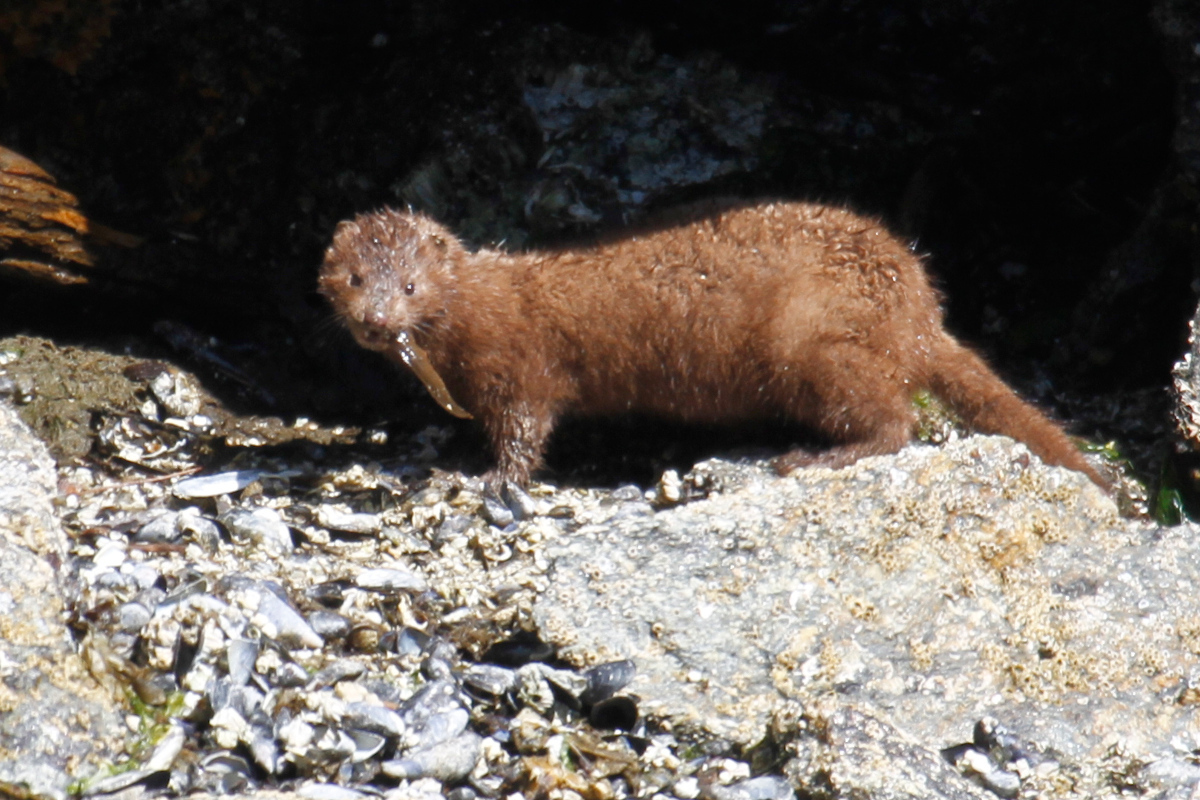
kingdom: Animalia
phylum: Chordata
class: Mammalia
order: Carnivora
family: Mustelidae
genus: Mustela
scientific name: Mustela
